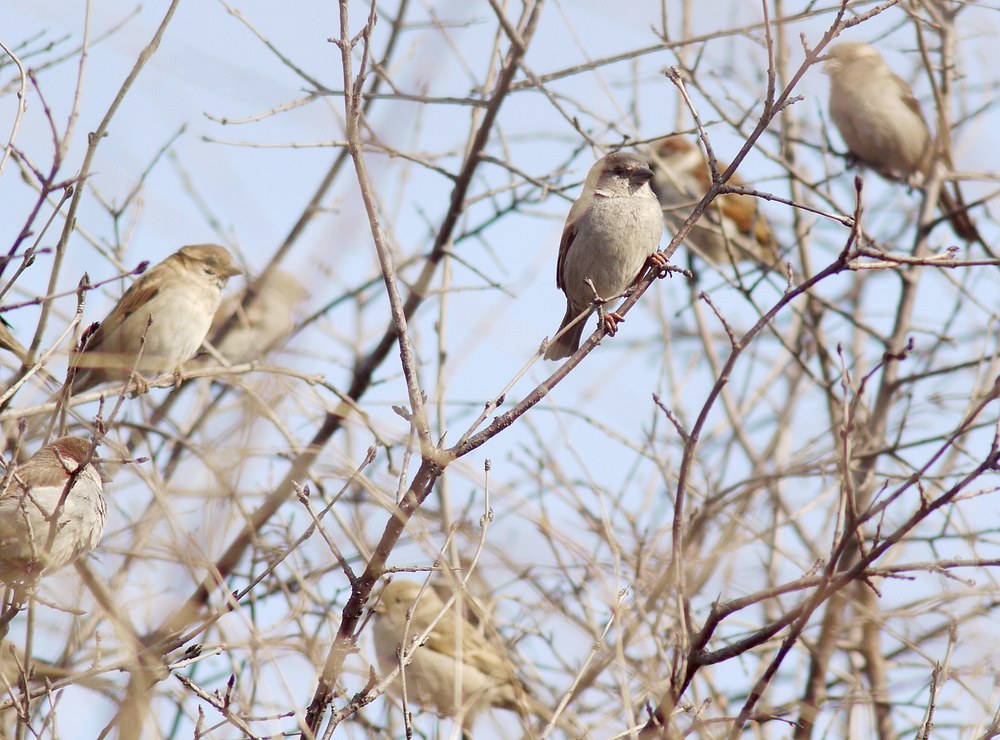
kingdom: Animalia
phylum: Chordata
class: Aves
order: Passeriformes
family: Passeridae
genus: Passer
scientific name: Passer domesticus
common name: House sparrow
